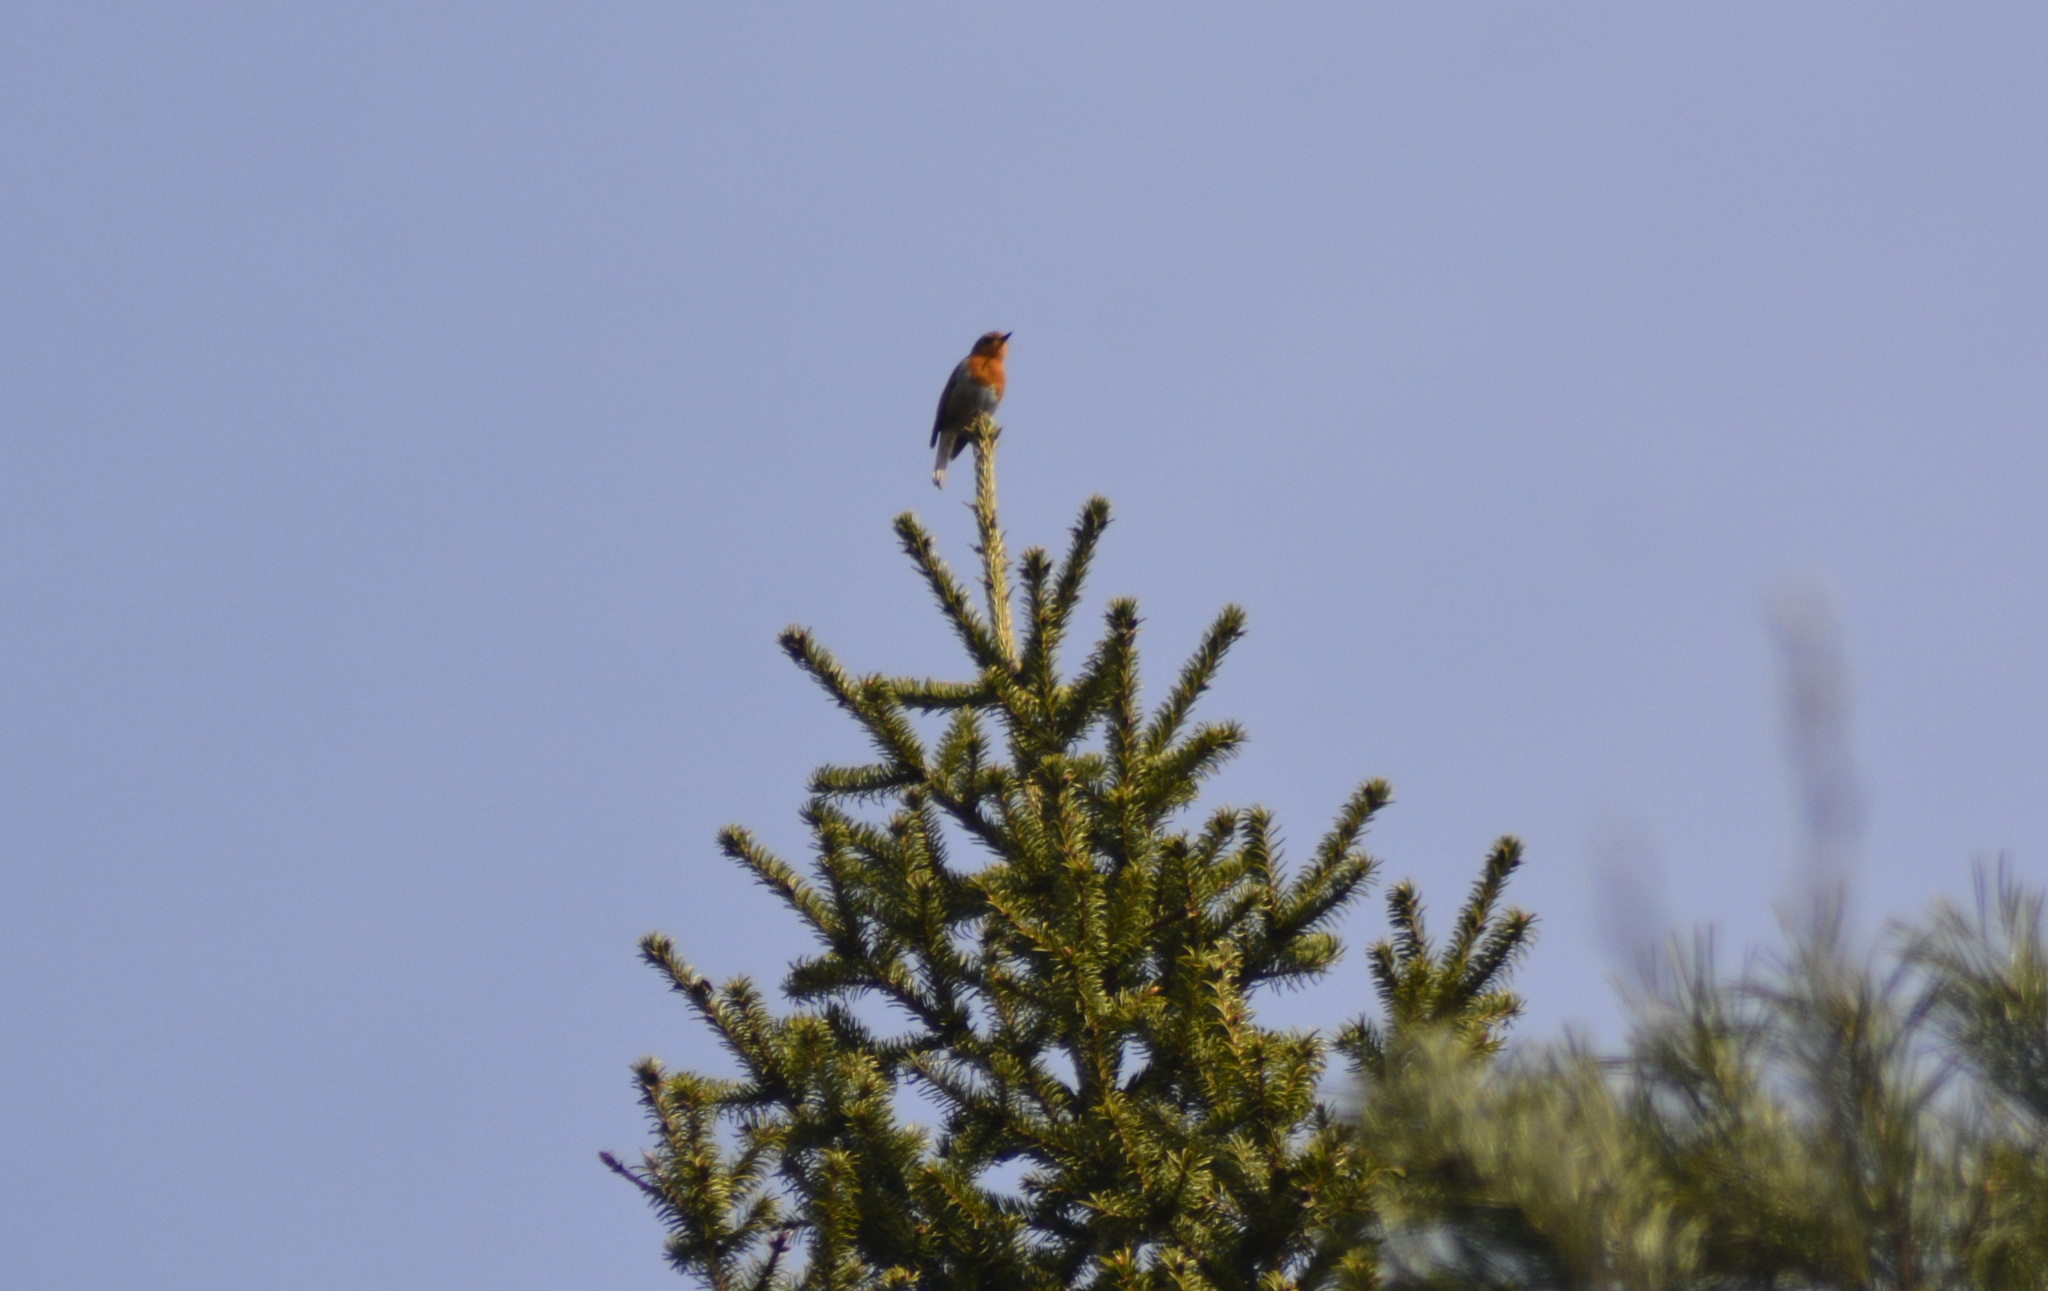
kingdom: Animalia
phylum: Chordata
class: Aves
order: Passeriformes
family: Muscicapidae
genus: Erithacus
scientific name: Erithacus rubecula
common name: European robin
